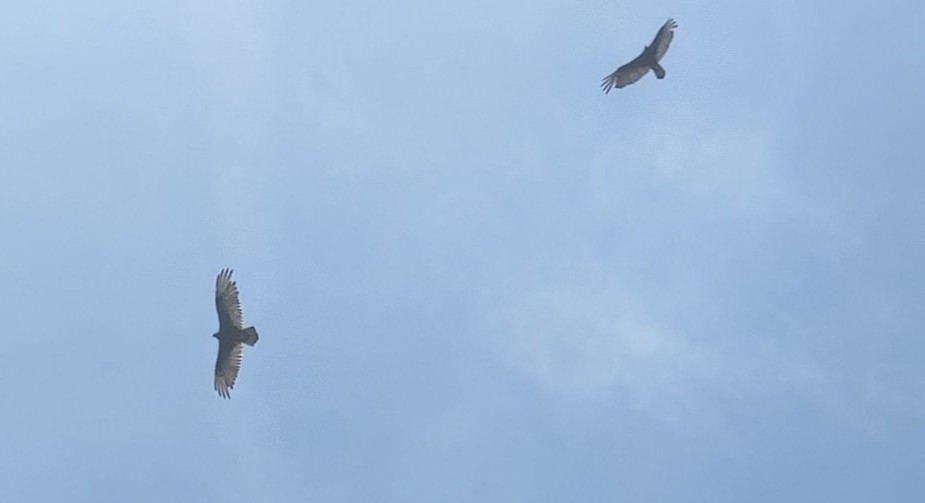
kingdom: Animalia
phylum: Chordata
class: Aves
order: Accipitriformes
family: Cathartidae
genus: Cathartes
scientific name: Cathartes aura
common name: Turkey vulture
